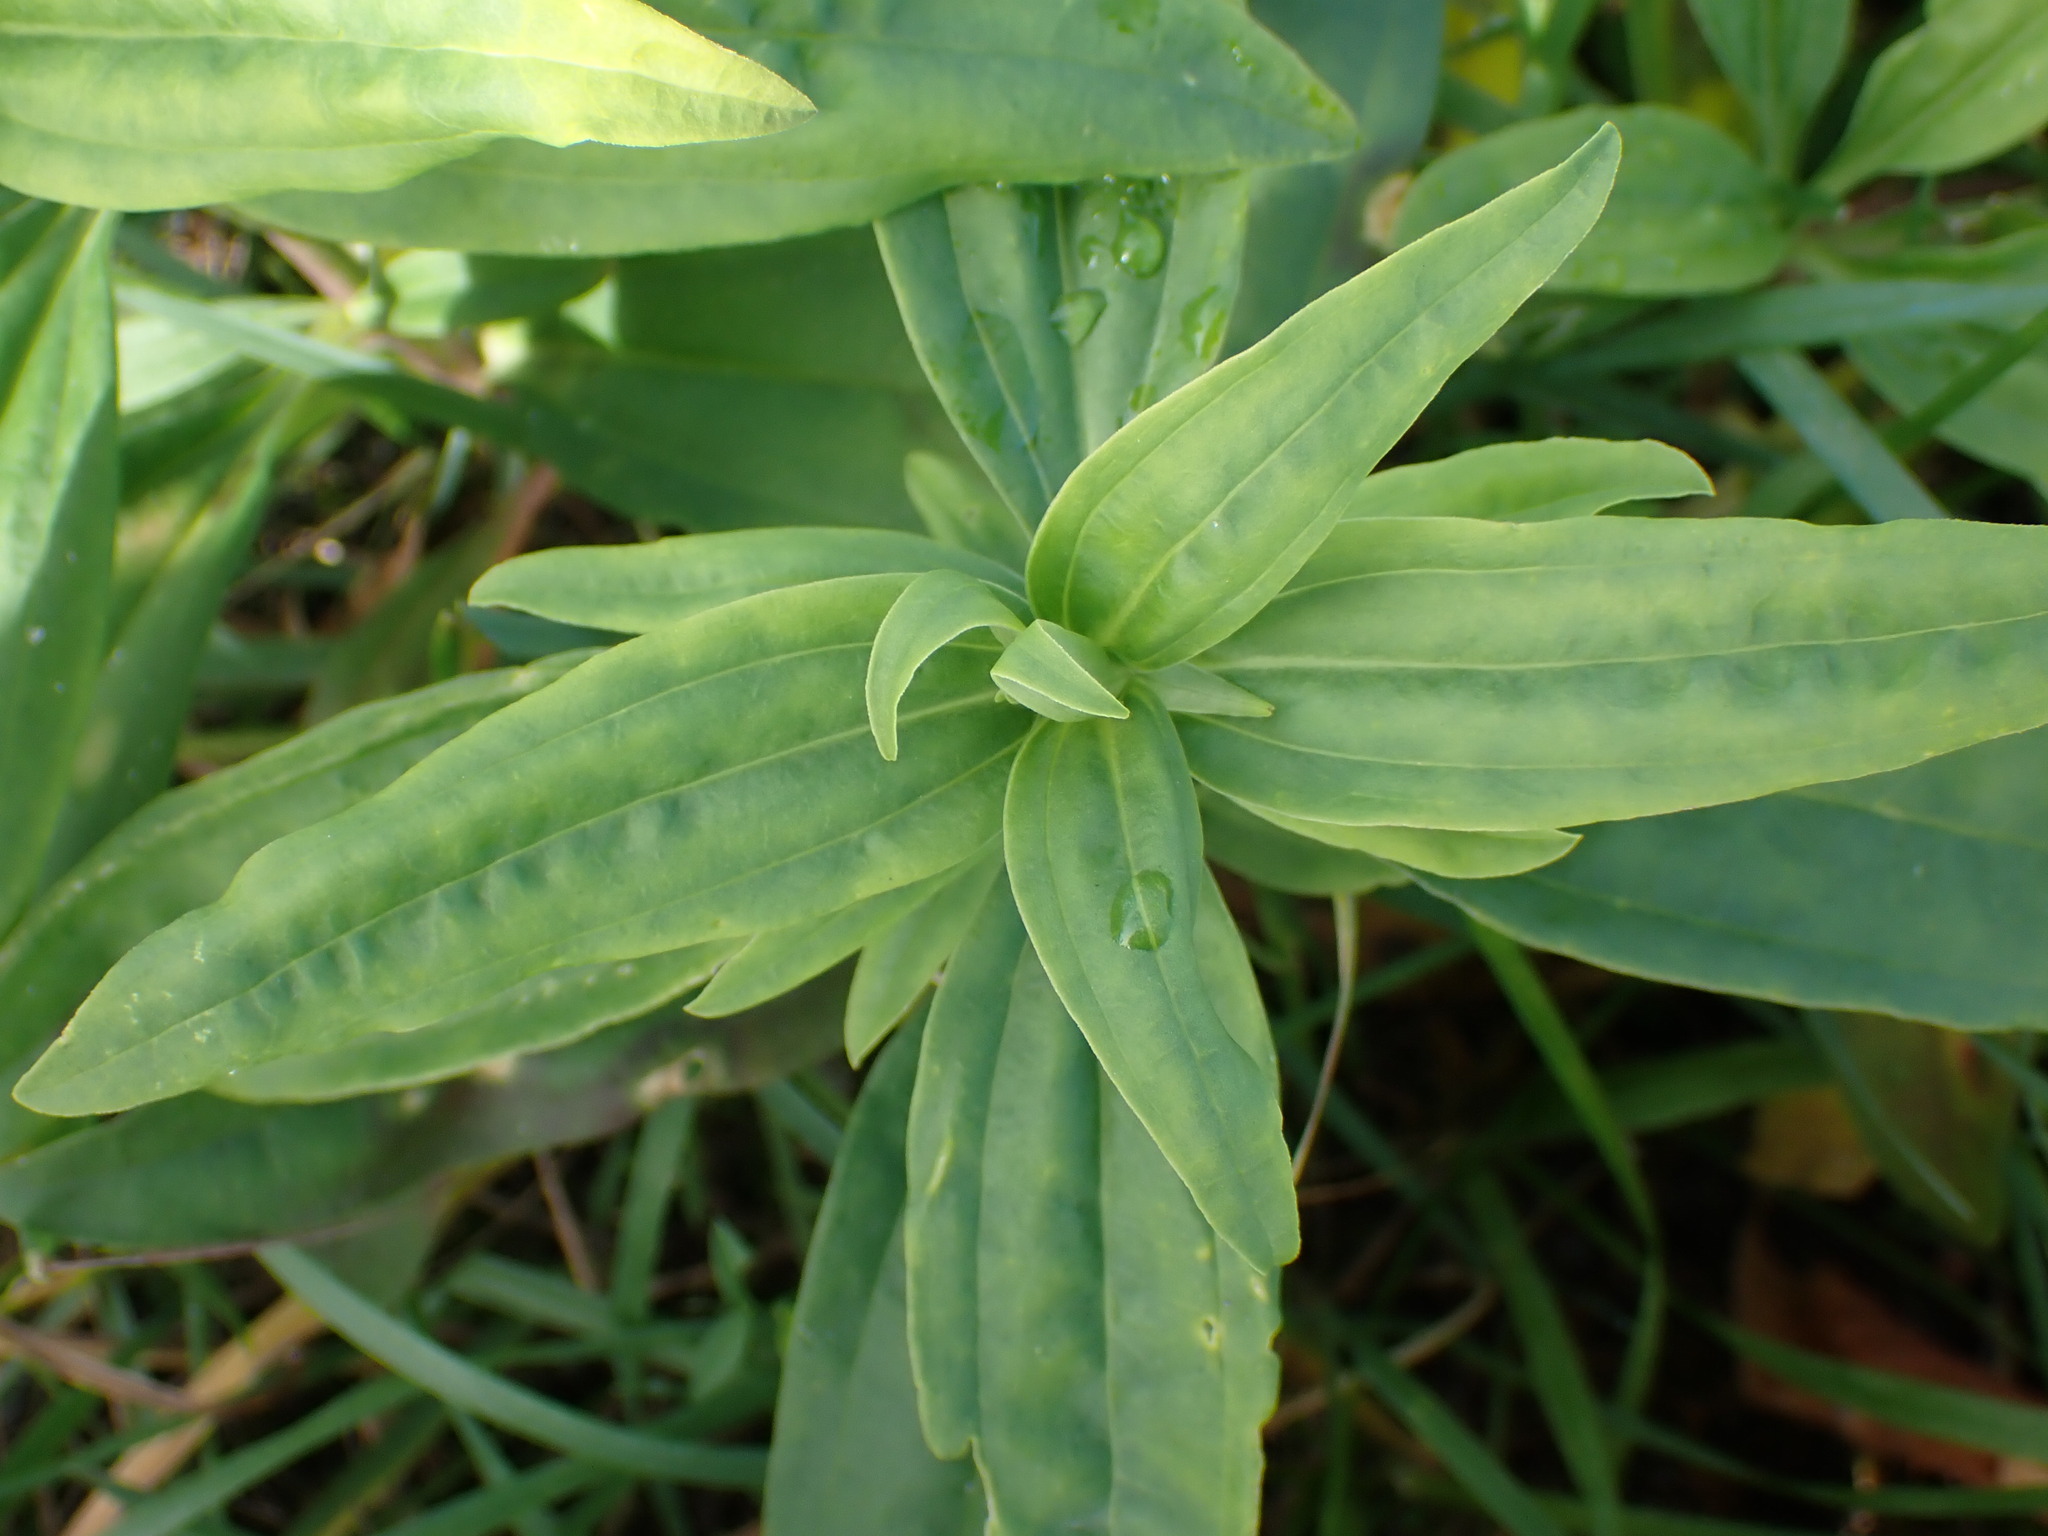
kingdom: Plantae
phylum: Tracheophyta
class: Magnoliopsida
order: Caryophyllales
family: Caryophyllaceae
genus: Saponaria
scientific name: Saponaria officinalis
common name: Soapwort
